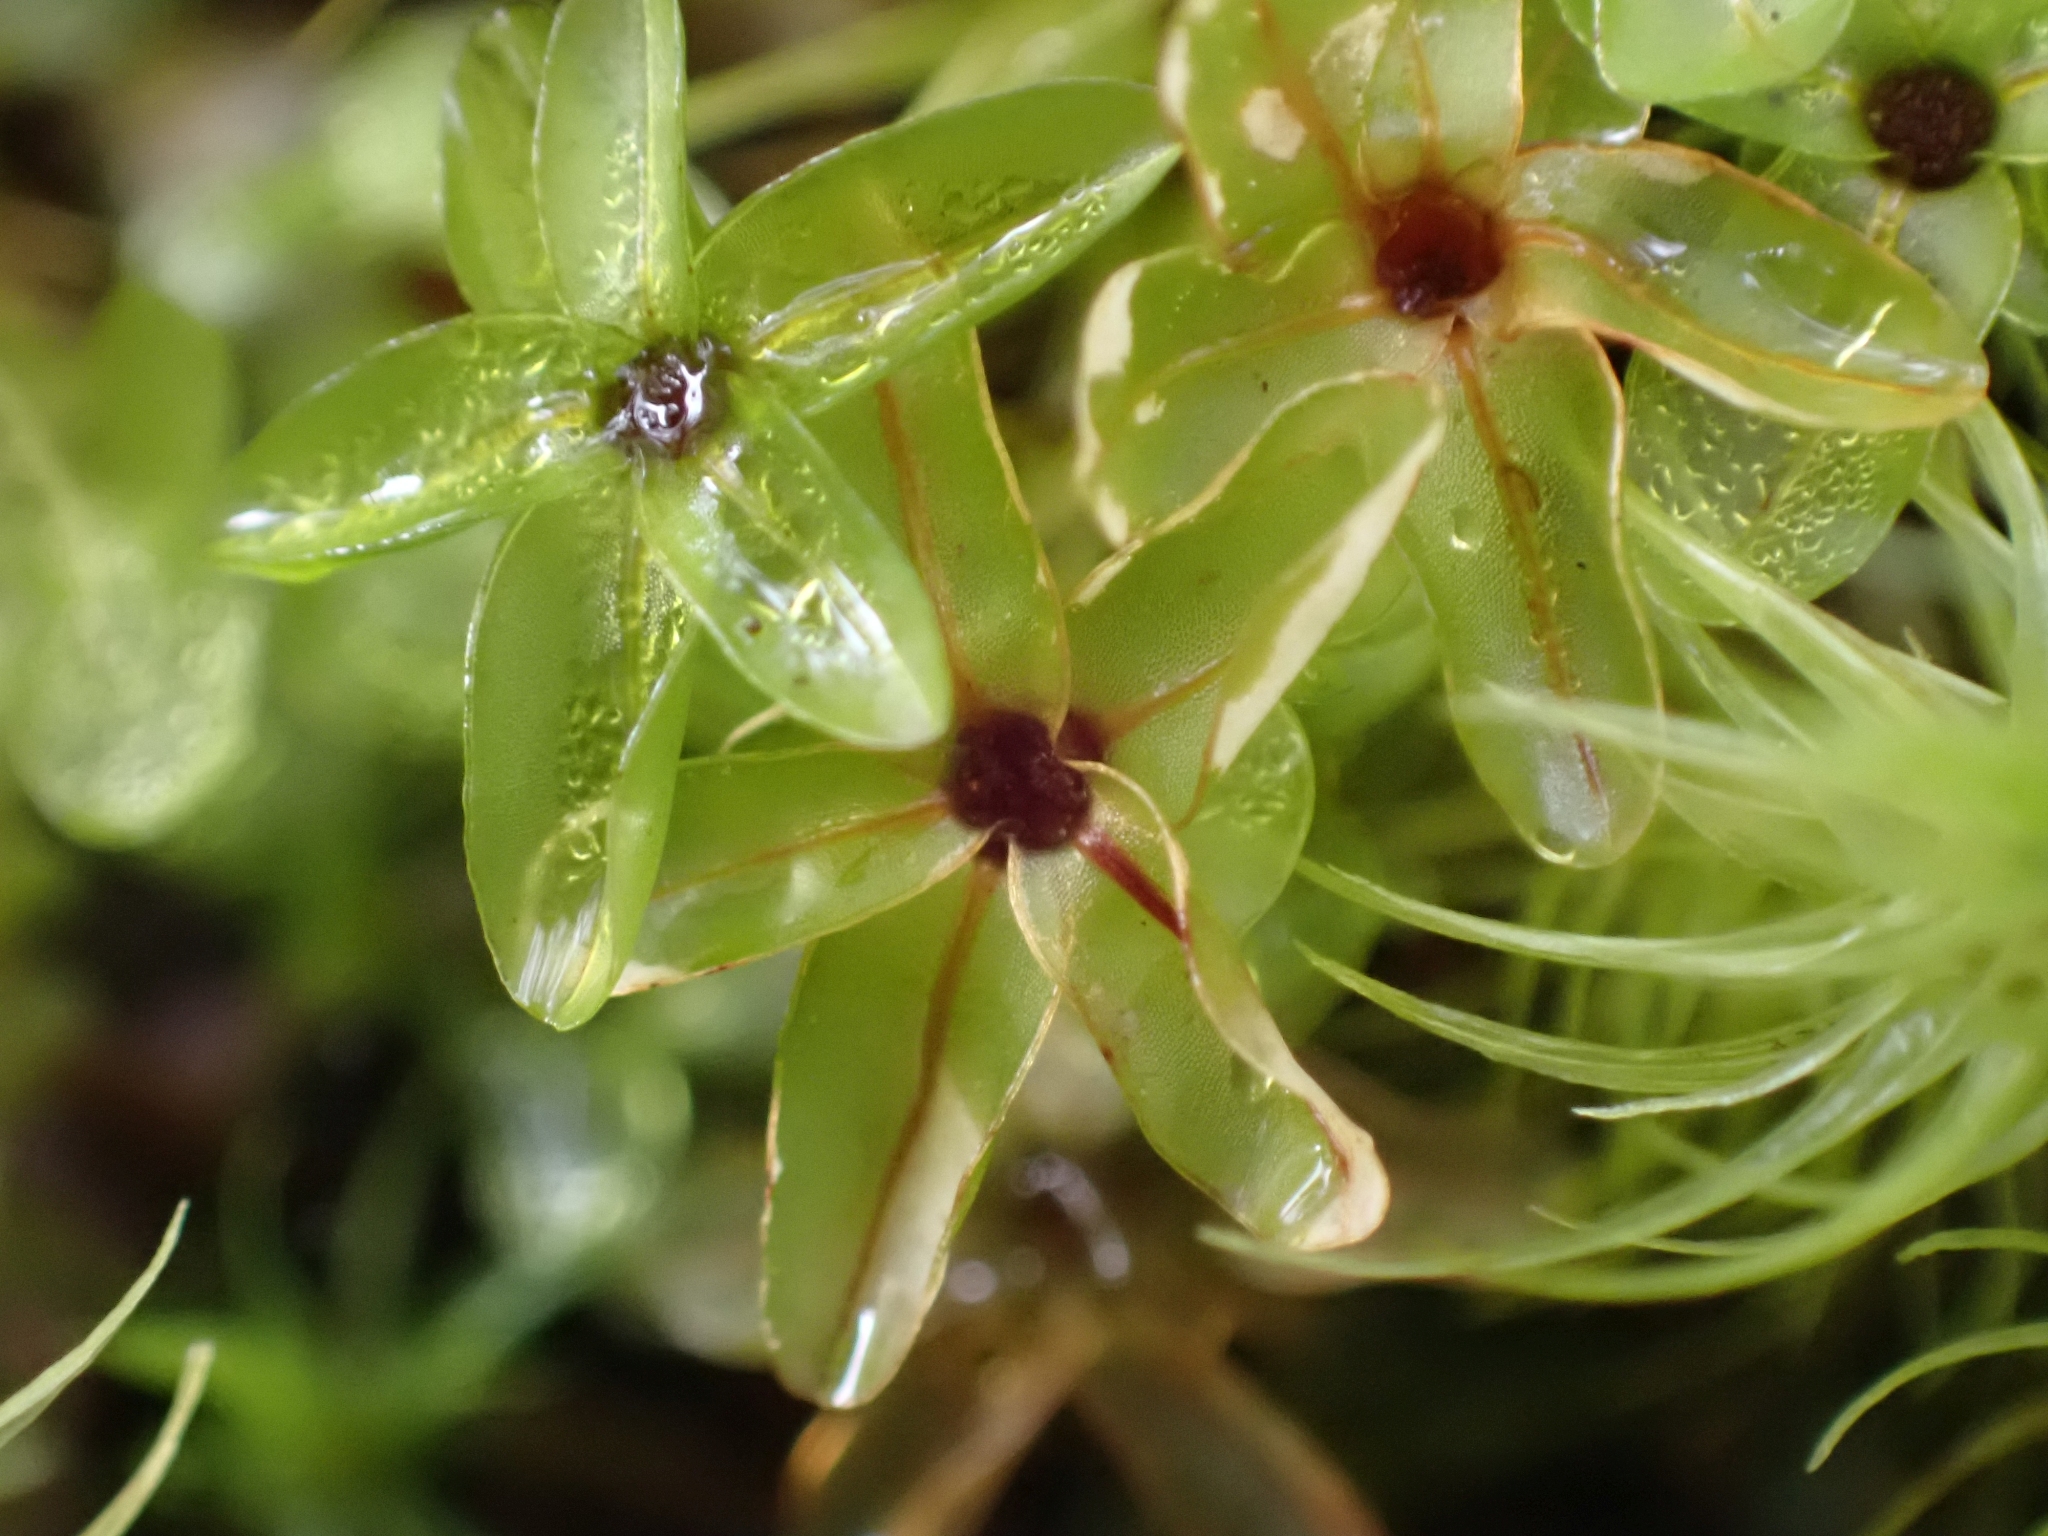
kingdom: Plantae
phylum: Bryophyta
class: Bryopsida
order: Bryales
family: Mniaceae
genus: Rhizomnium
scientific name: Rhizomnium glabrescens
